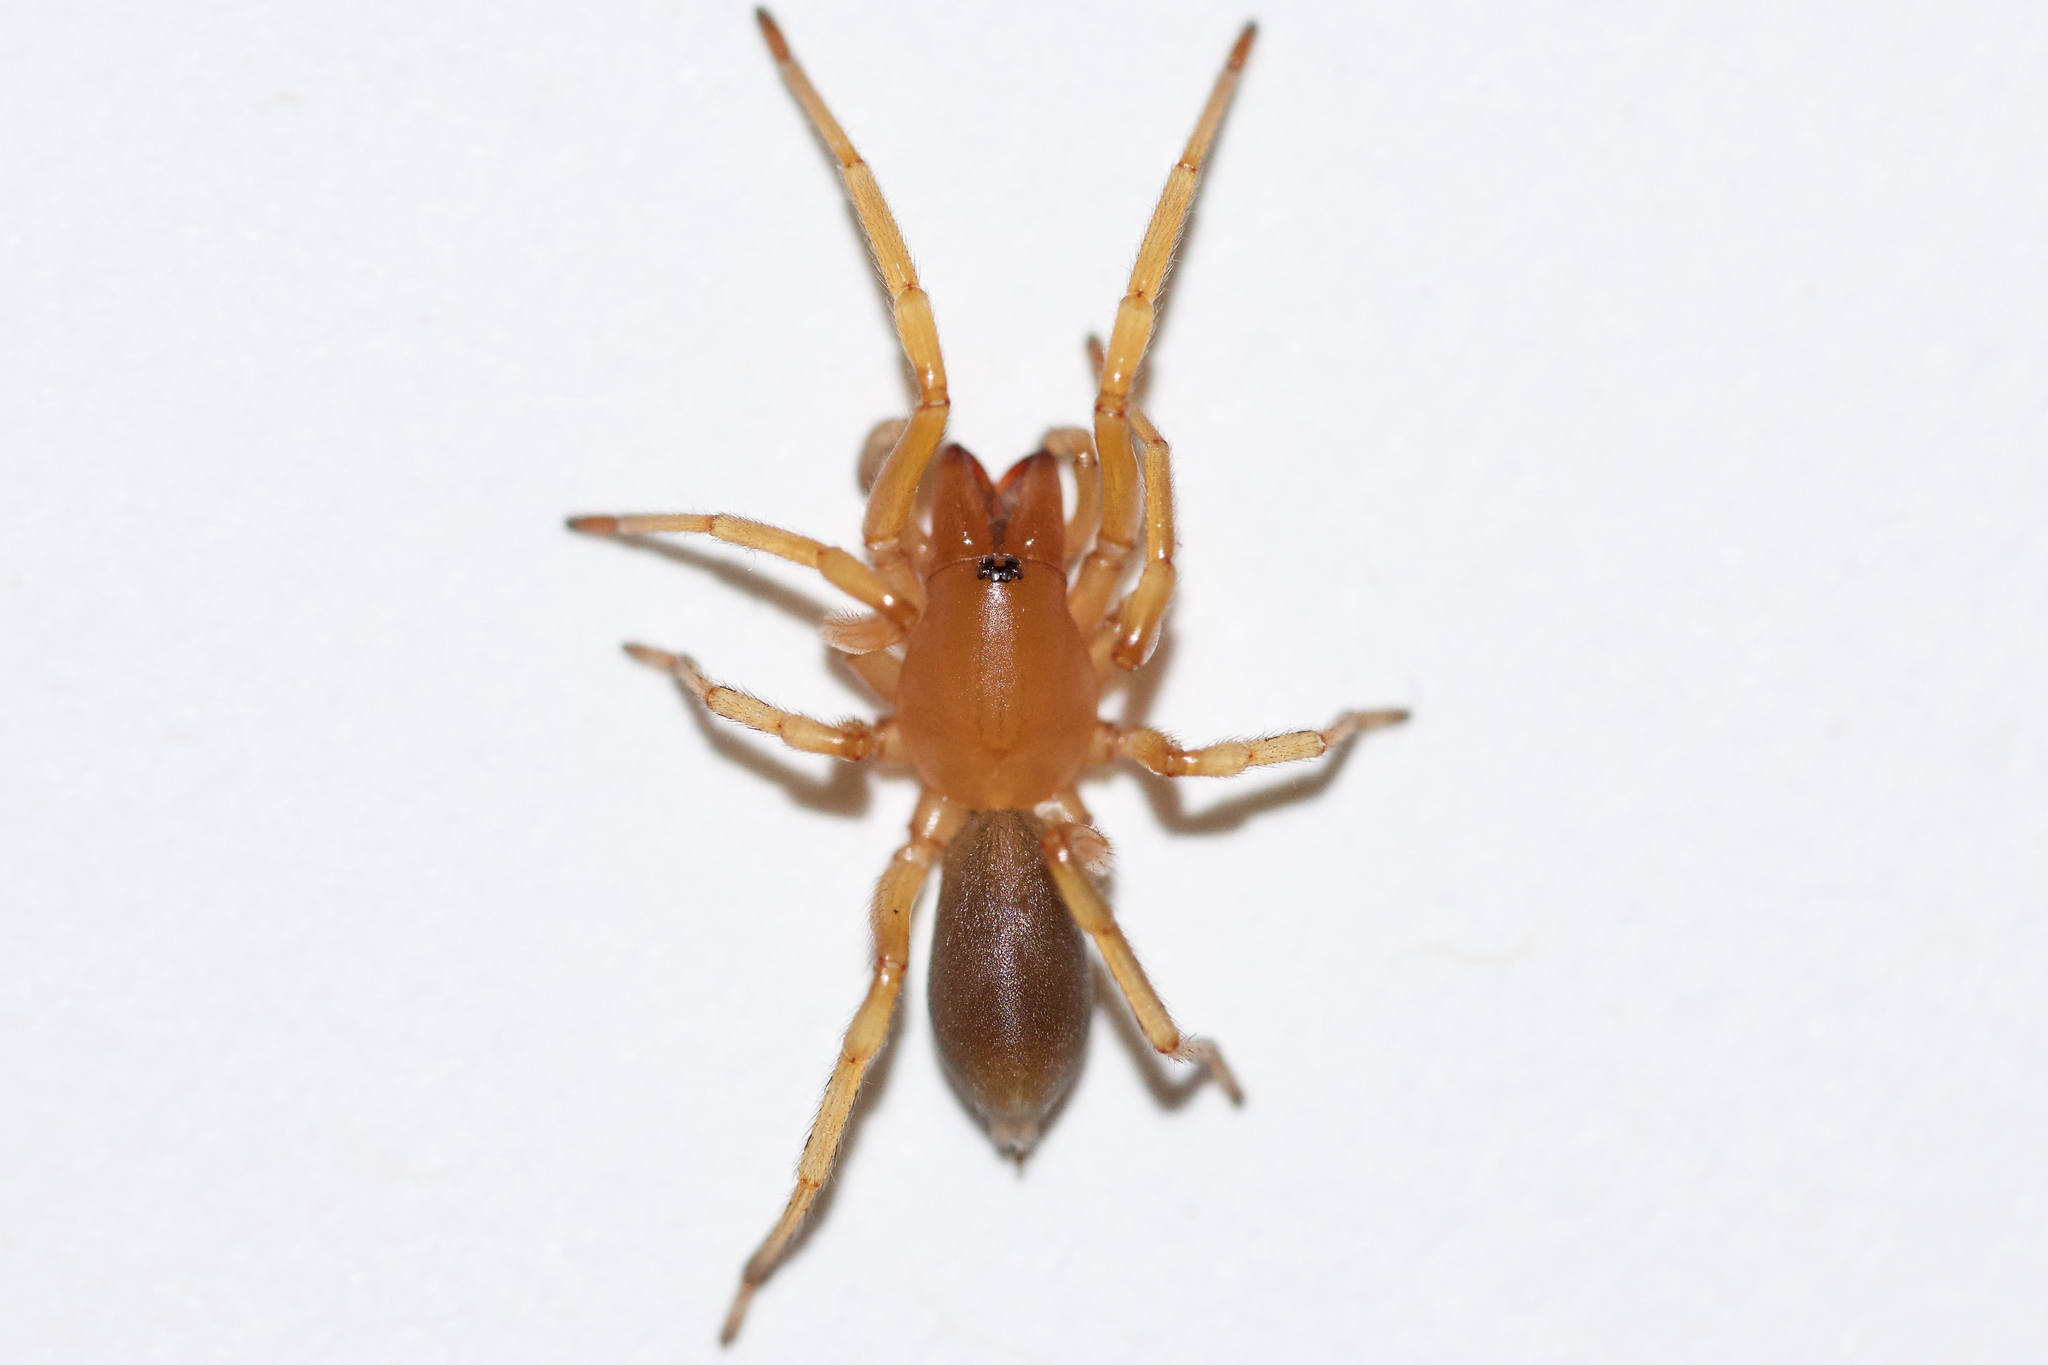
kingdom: Animalia
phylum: Arthropoda
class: Arachnida
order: Araneae
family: Dysderidae
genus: Dysdera
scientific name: Dysdera crocata
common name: Woodlouse spider
